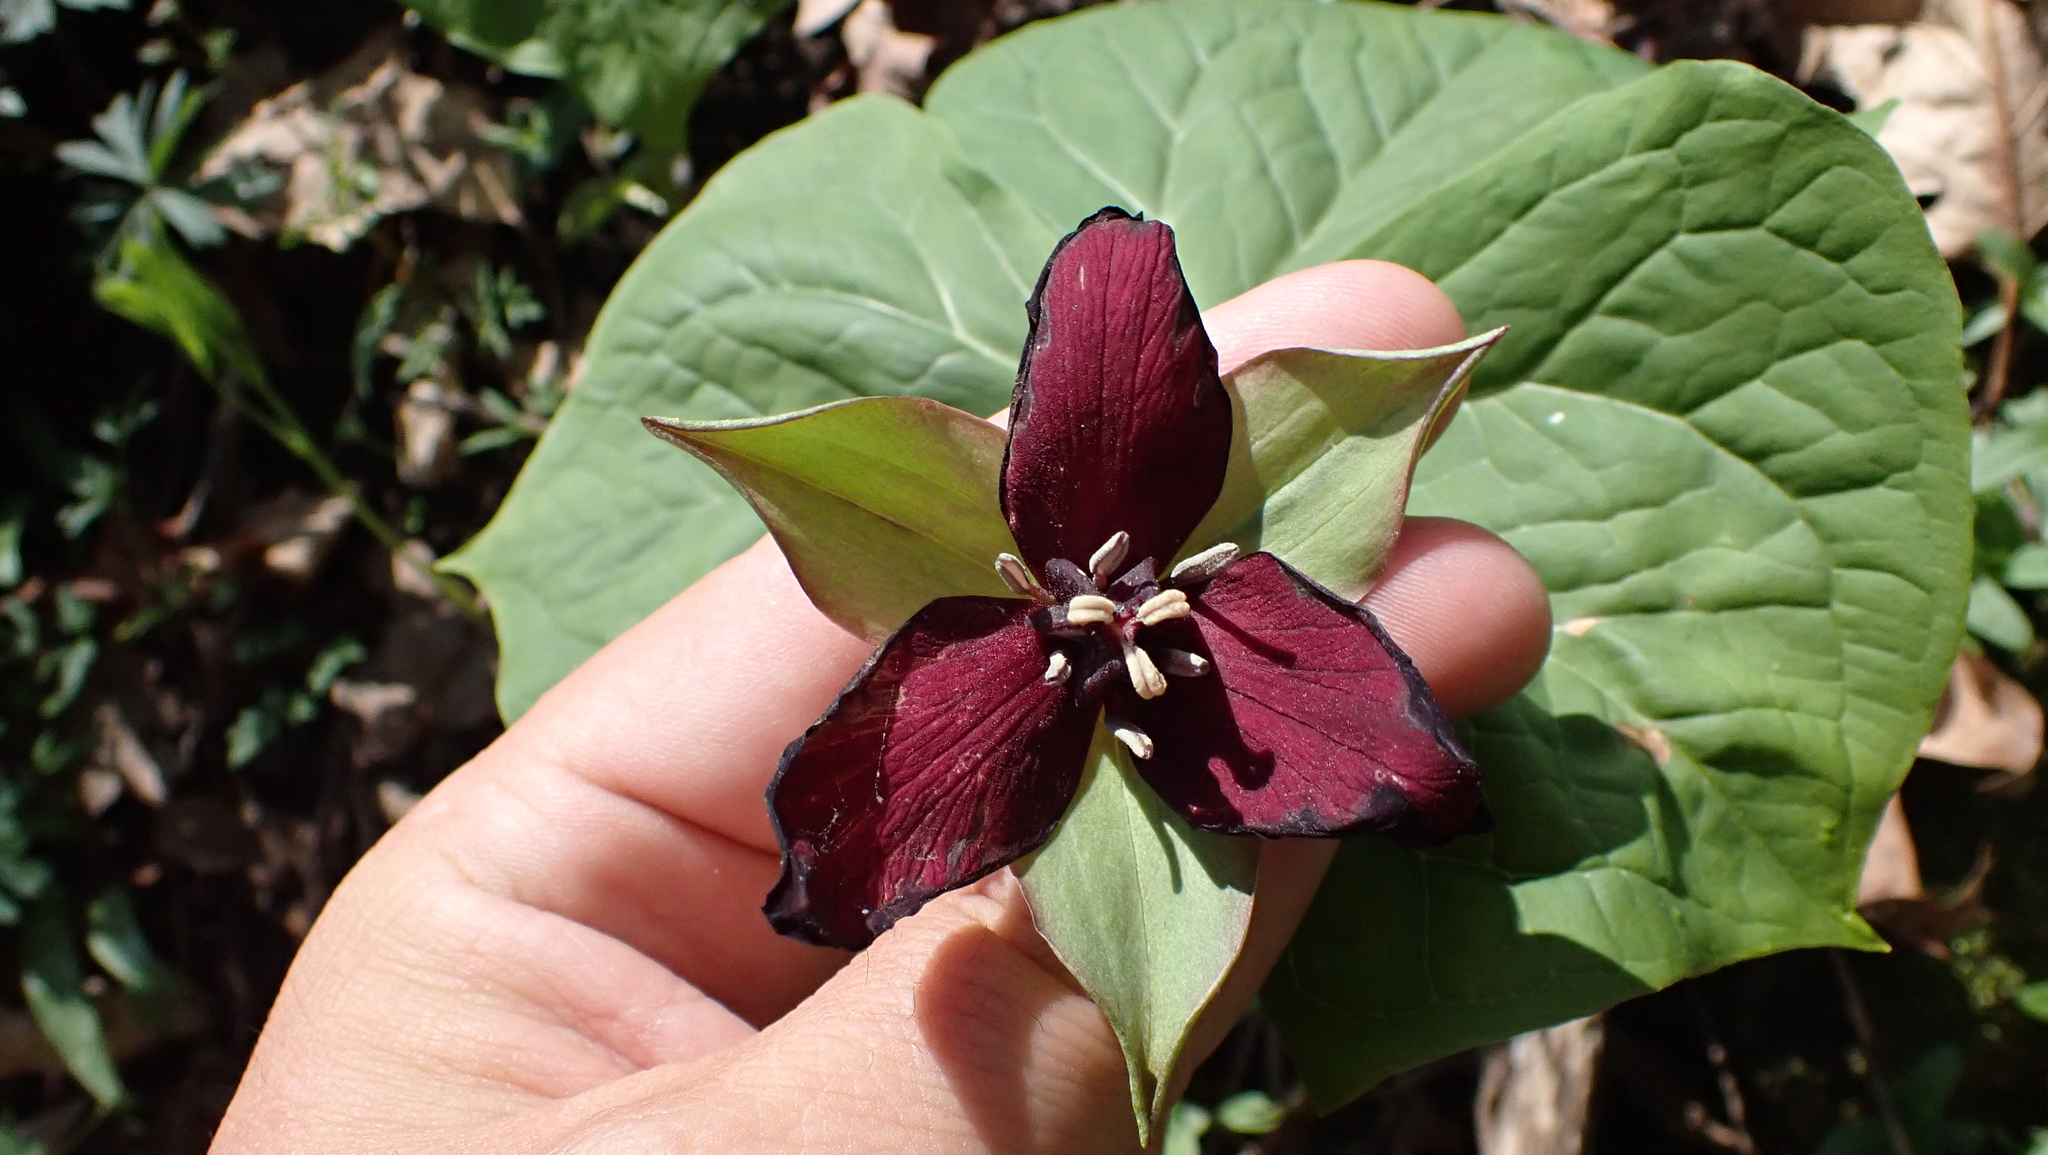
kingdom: Plantae
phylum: Tracheophyta
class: Liliopsida
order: Liliales
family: Melanthiaceae
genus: Trillium
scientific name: Trillium erectum
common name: Purple trillium
